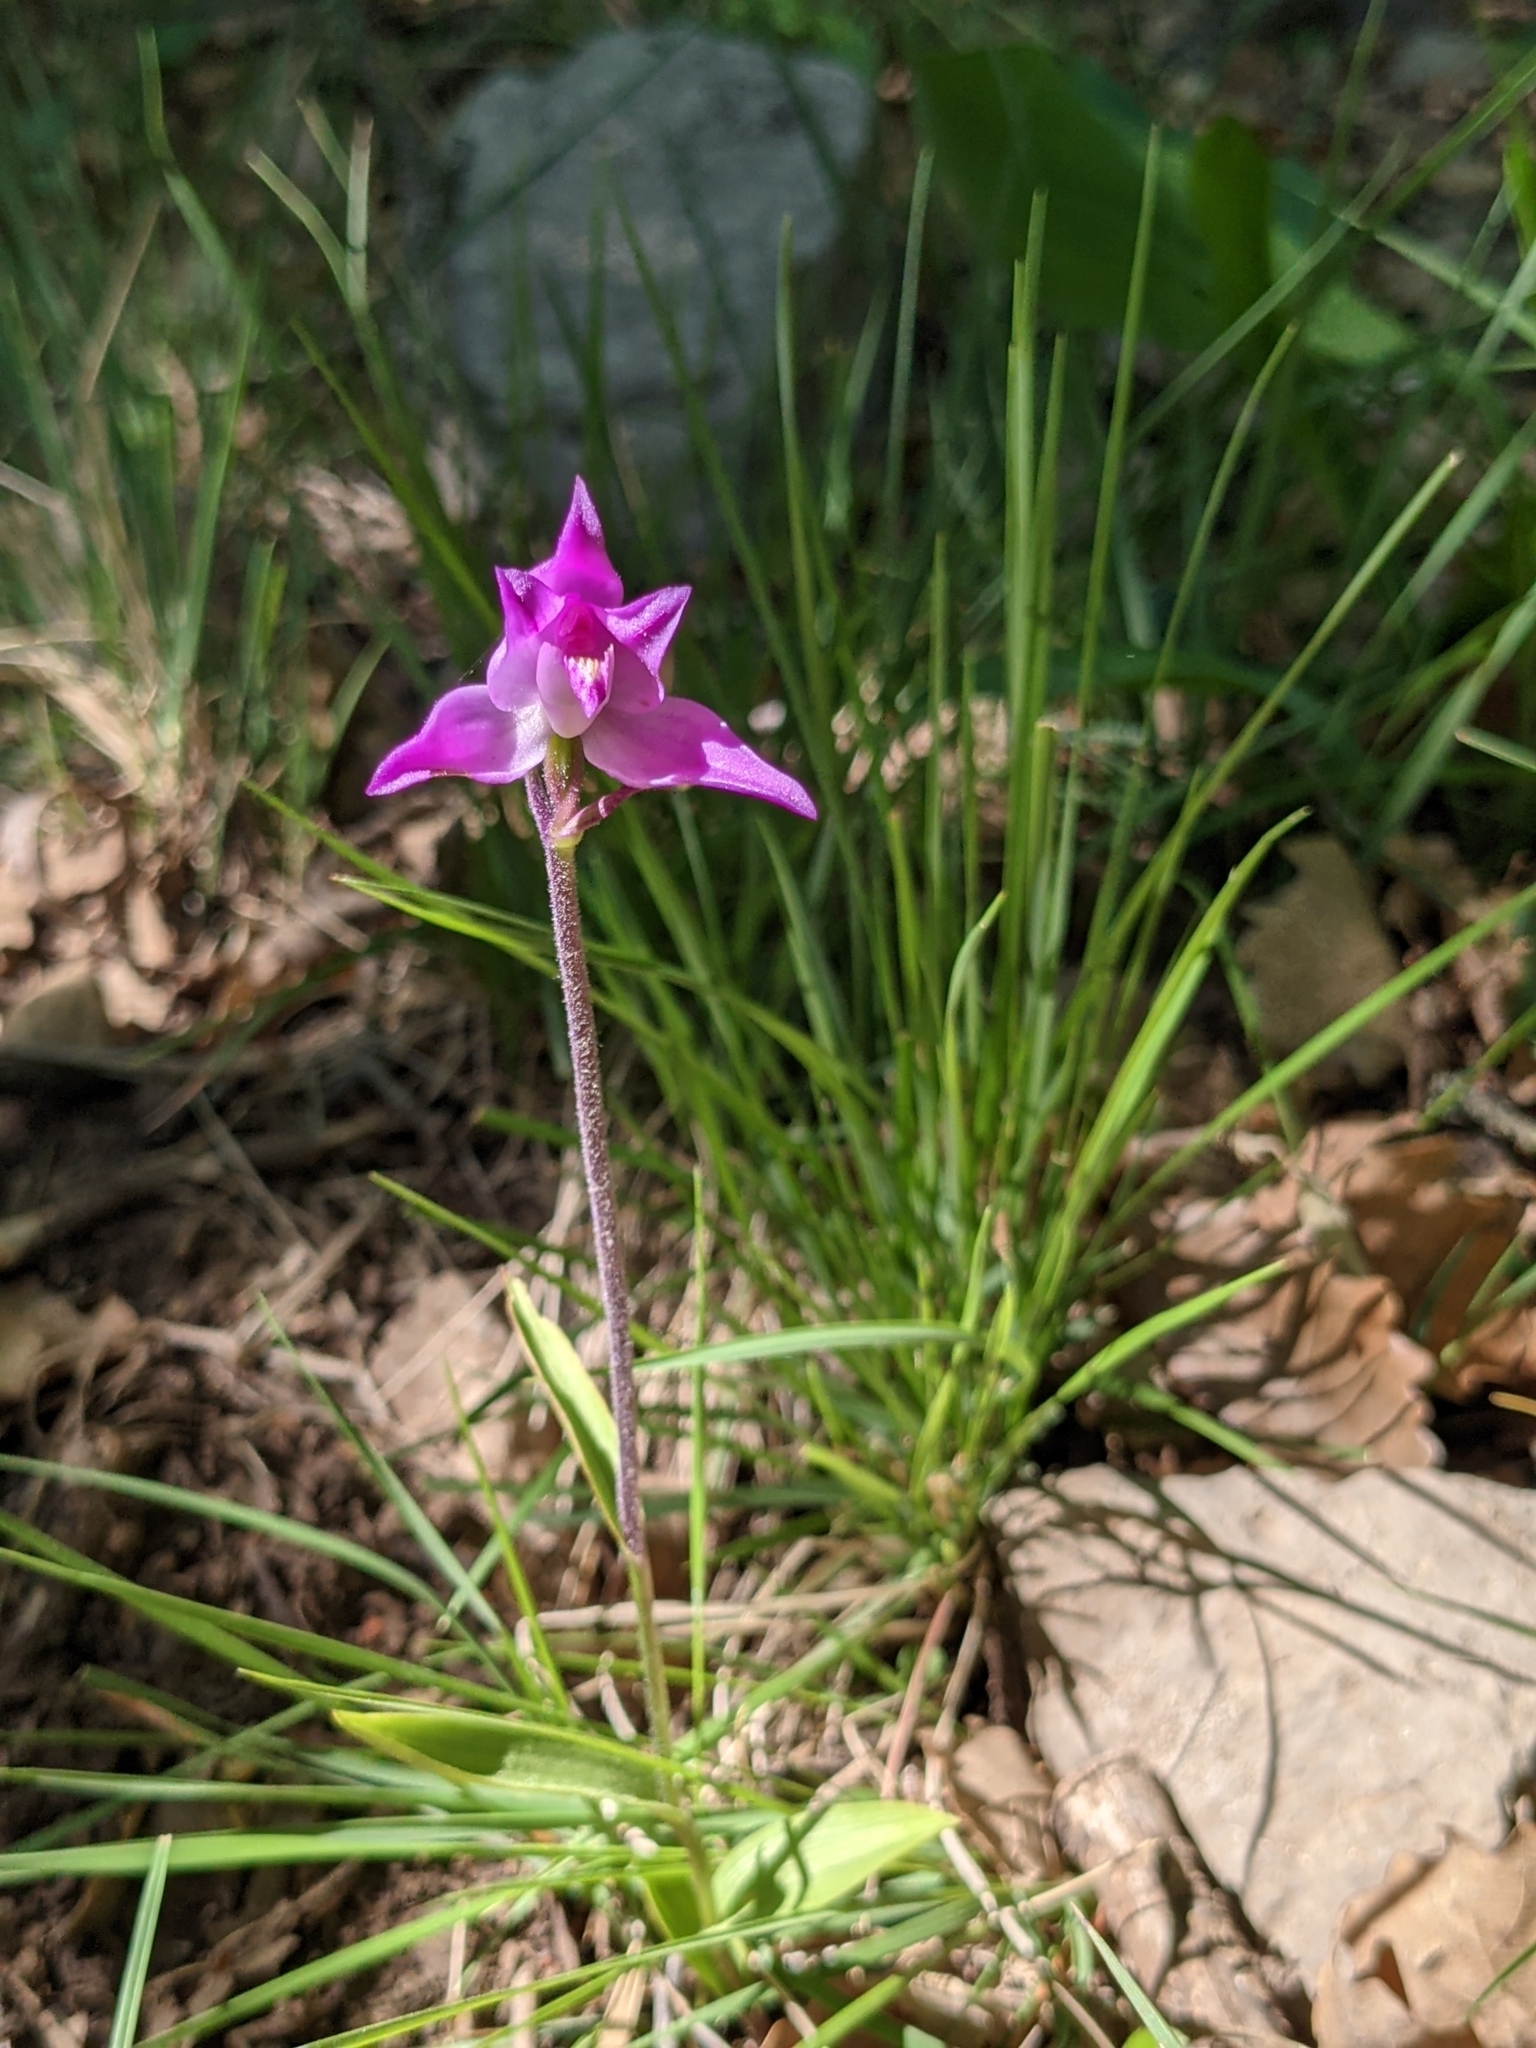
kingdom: Plantae
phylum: Tracheophyta
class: Liliopsida
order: Asparagales
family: Orchidaceae
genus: Cephalanthera
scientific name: Cephalanthera rubra
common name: Red helleborine
